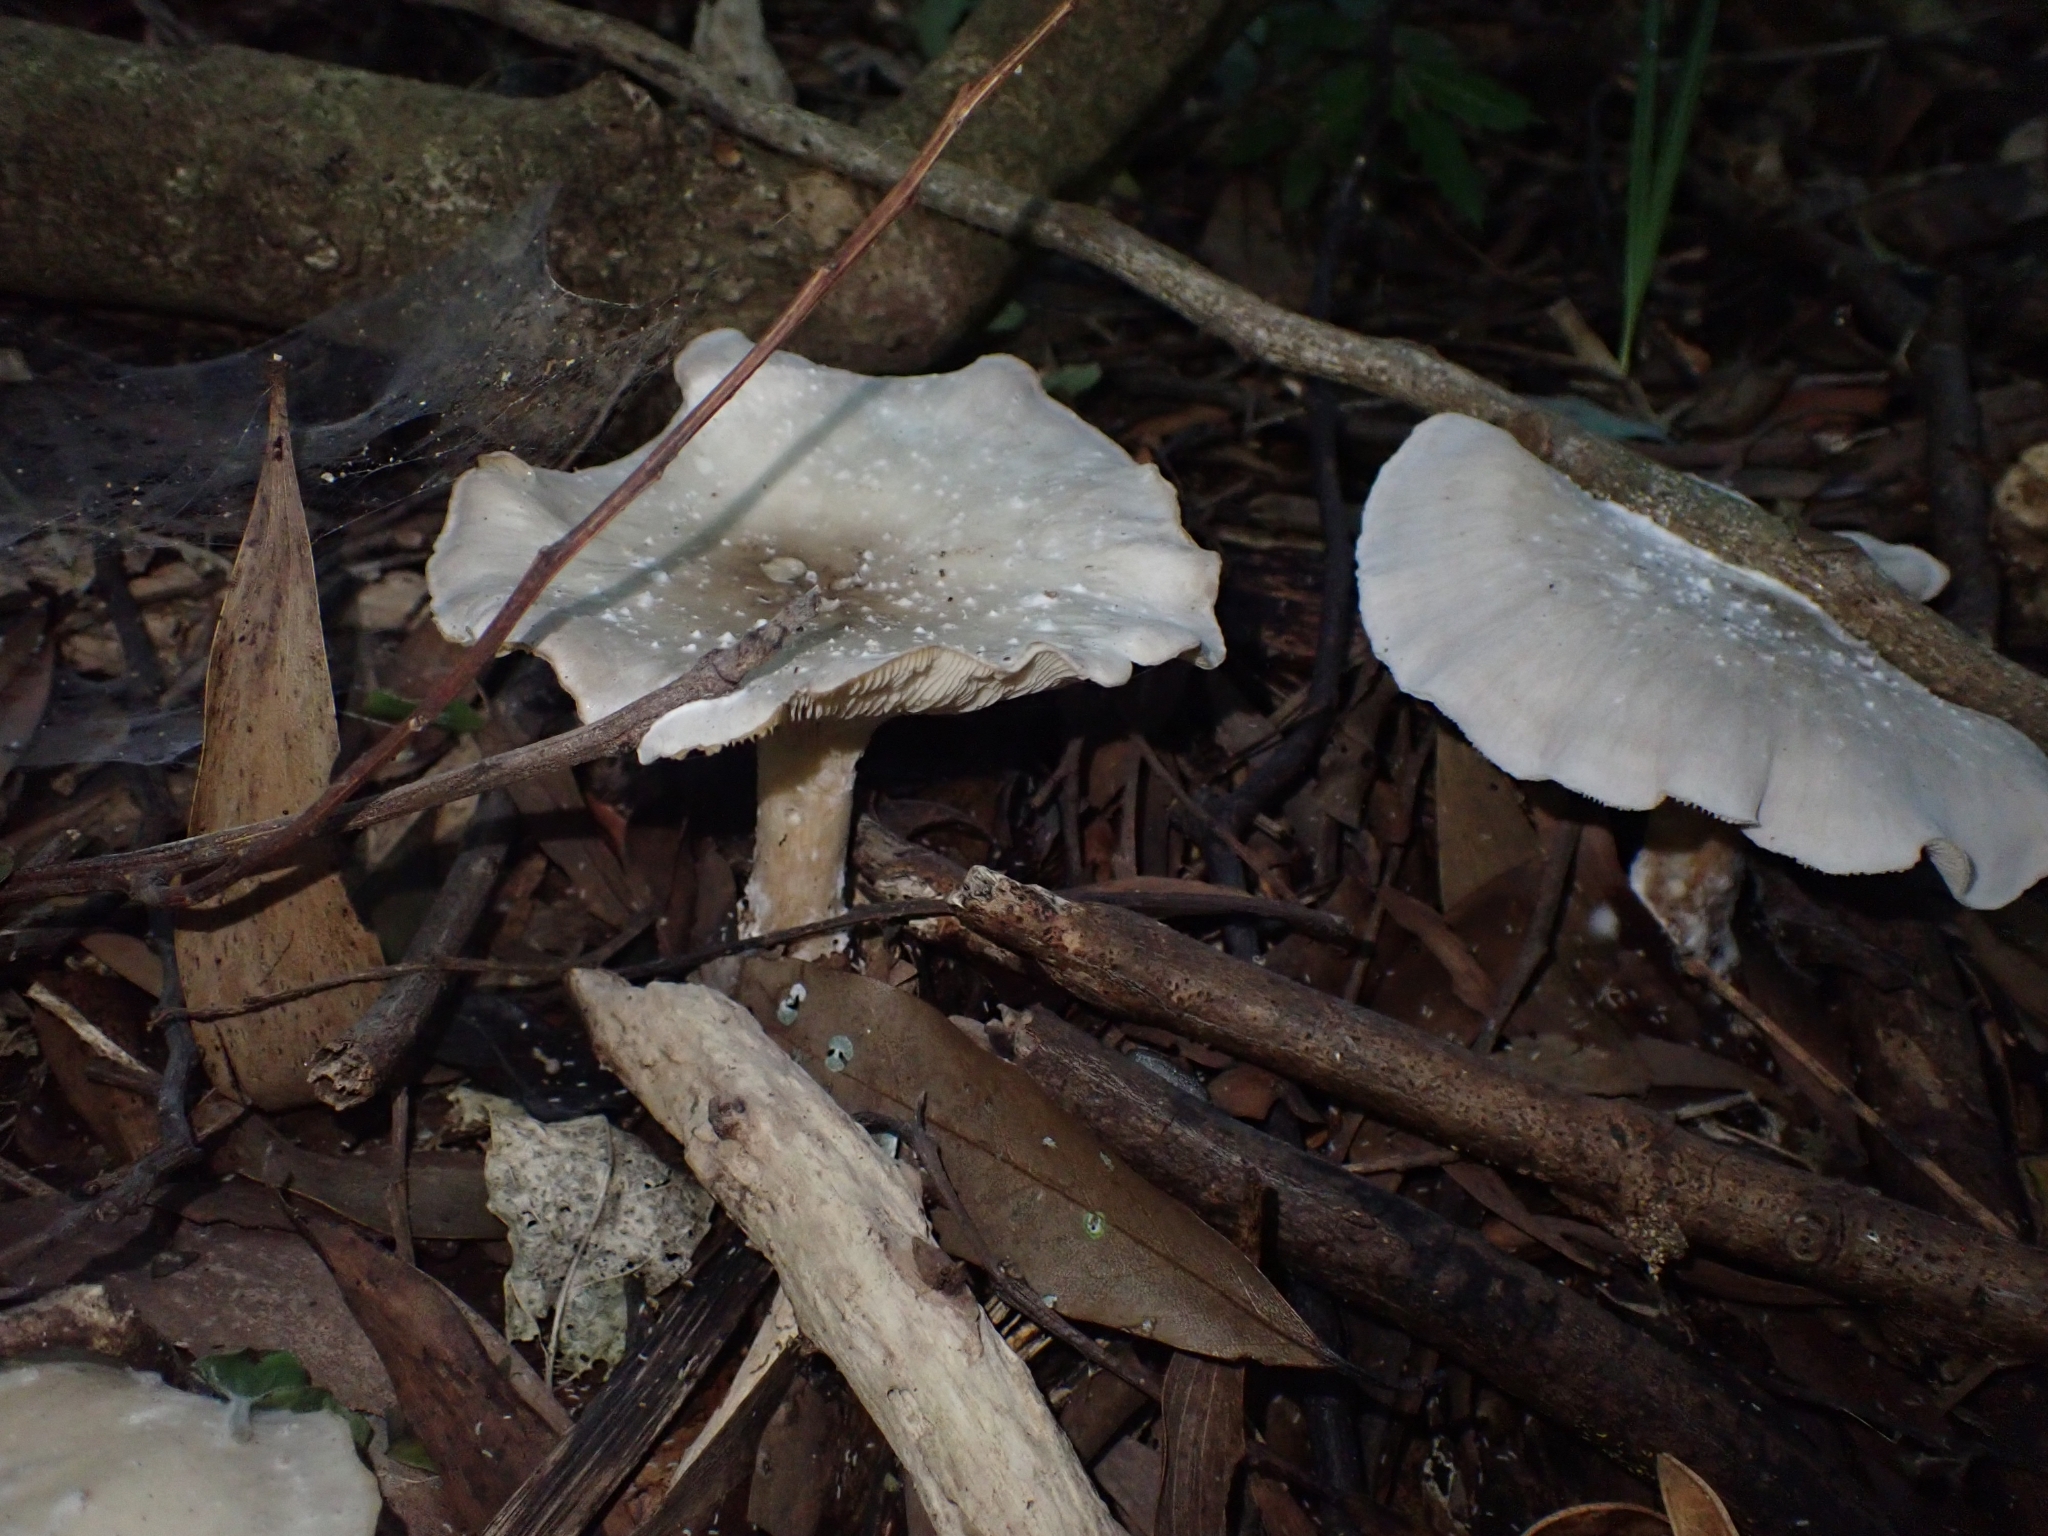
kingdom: Fungi
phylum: Basidiomycota
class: Agaricomycetes
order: Agaricales
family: Tricholomataceae
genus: Clitocybe
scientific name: Clitocybe nebularis
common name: Clouded agaric
